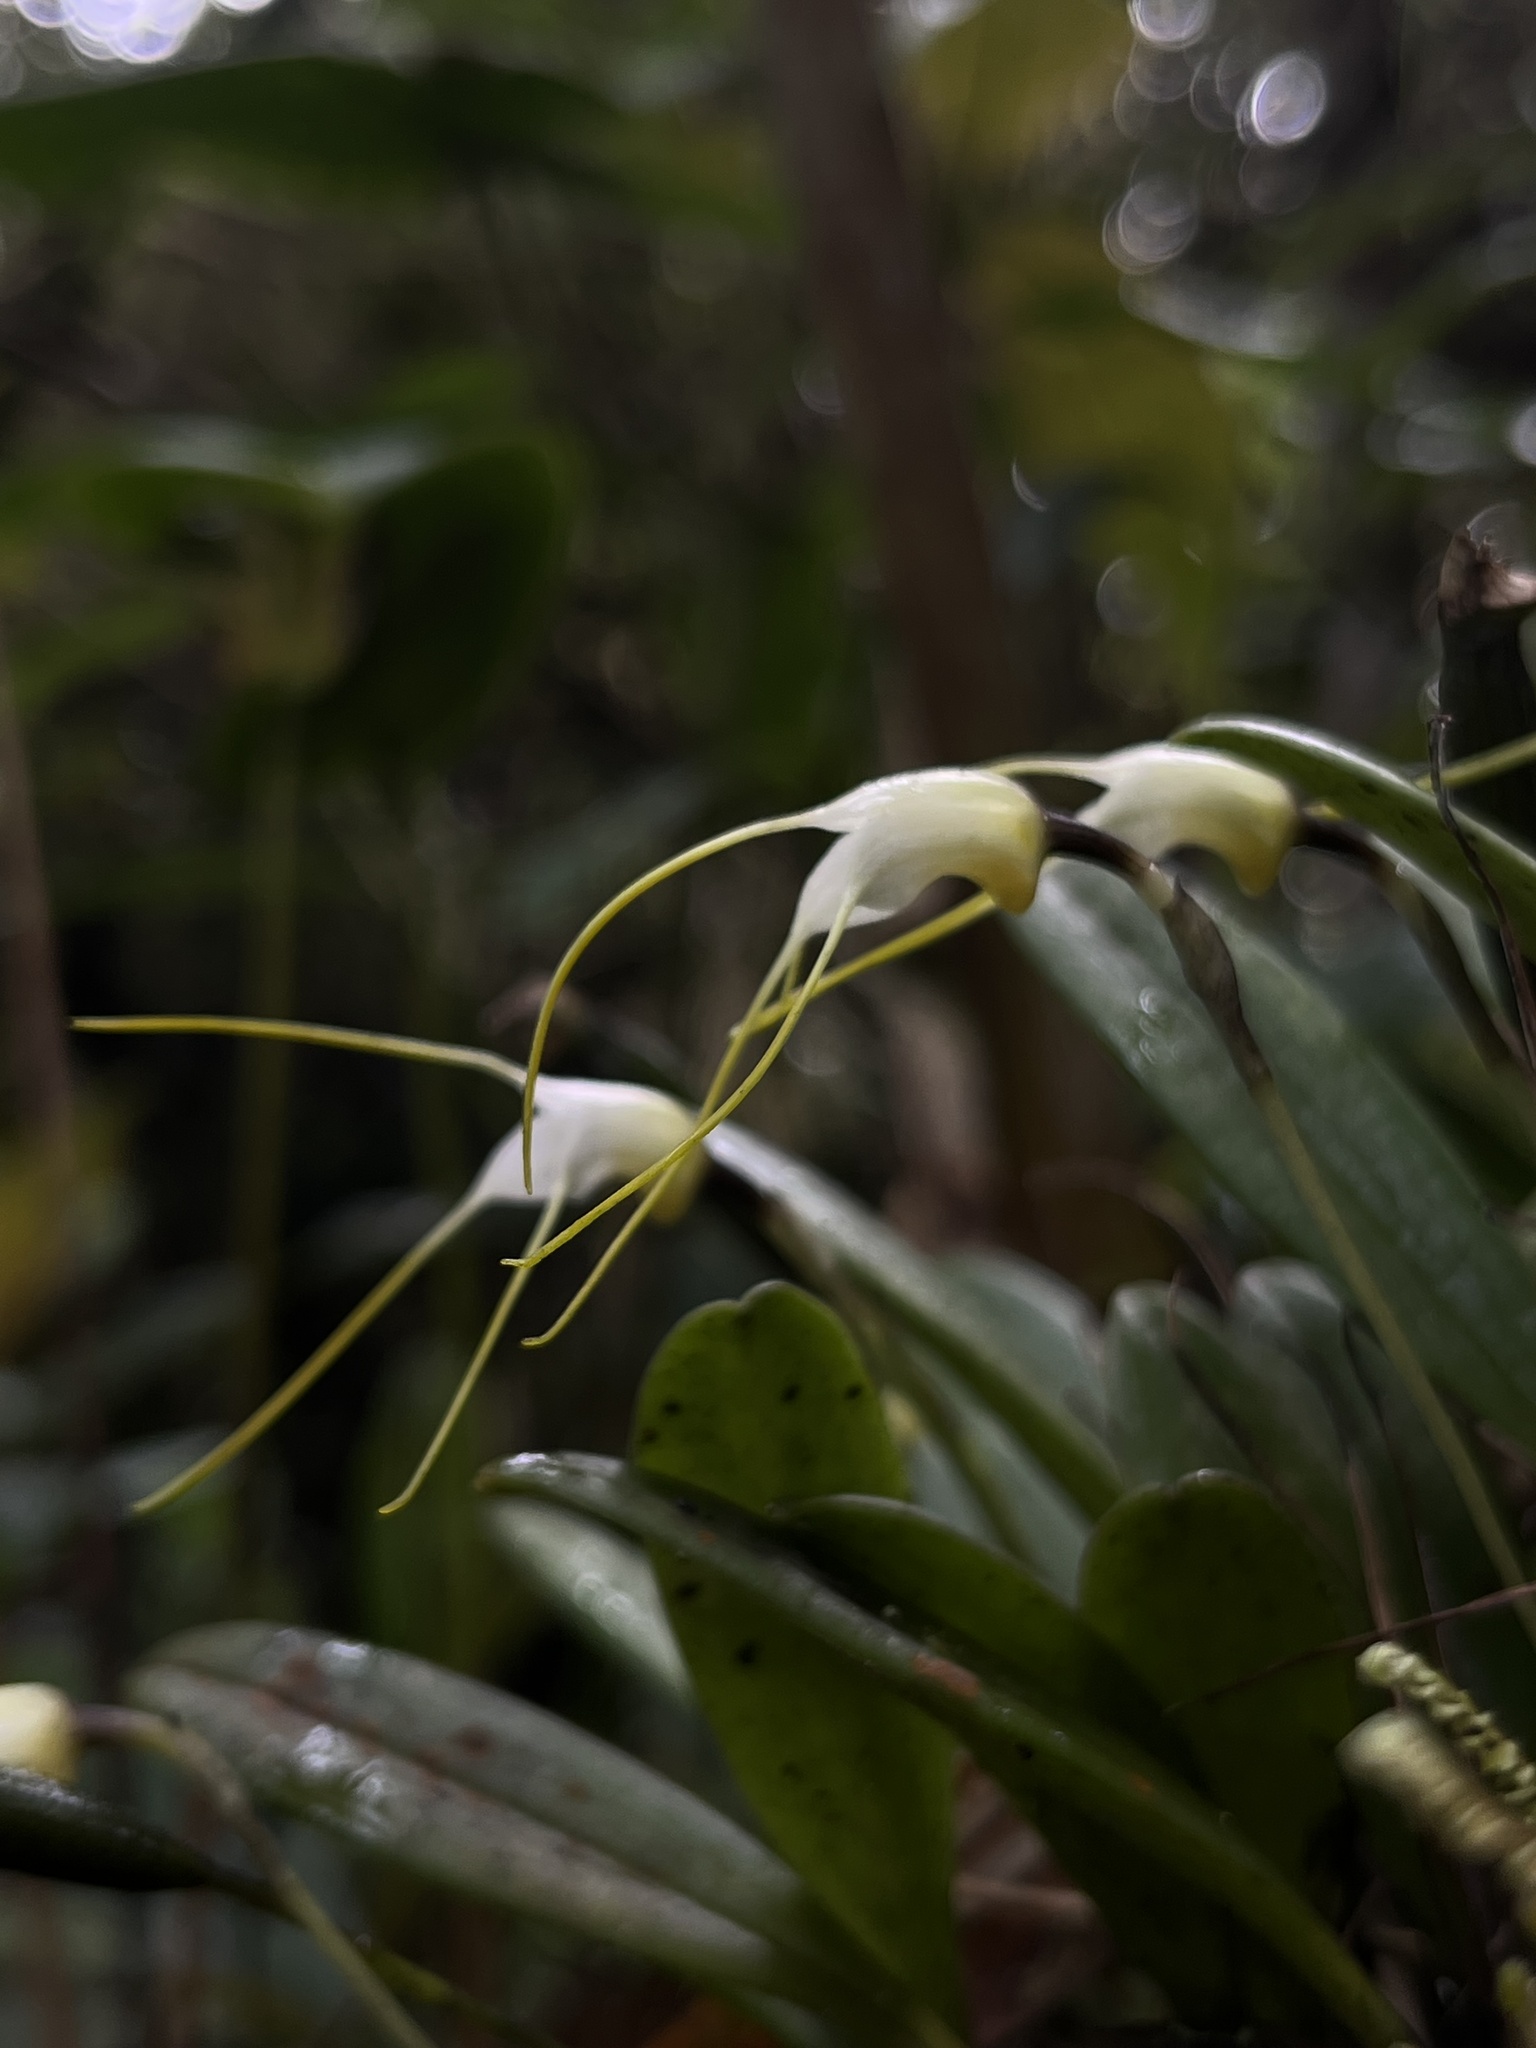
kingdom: Plantae
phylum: Tracheophyta
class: Liliopsida
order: Asparagales
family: Orchidaceae
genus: Masdevallia
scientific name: Masdevallia strumifera
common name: Goiter carrying masdevallia
